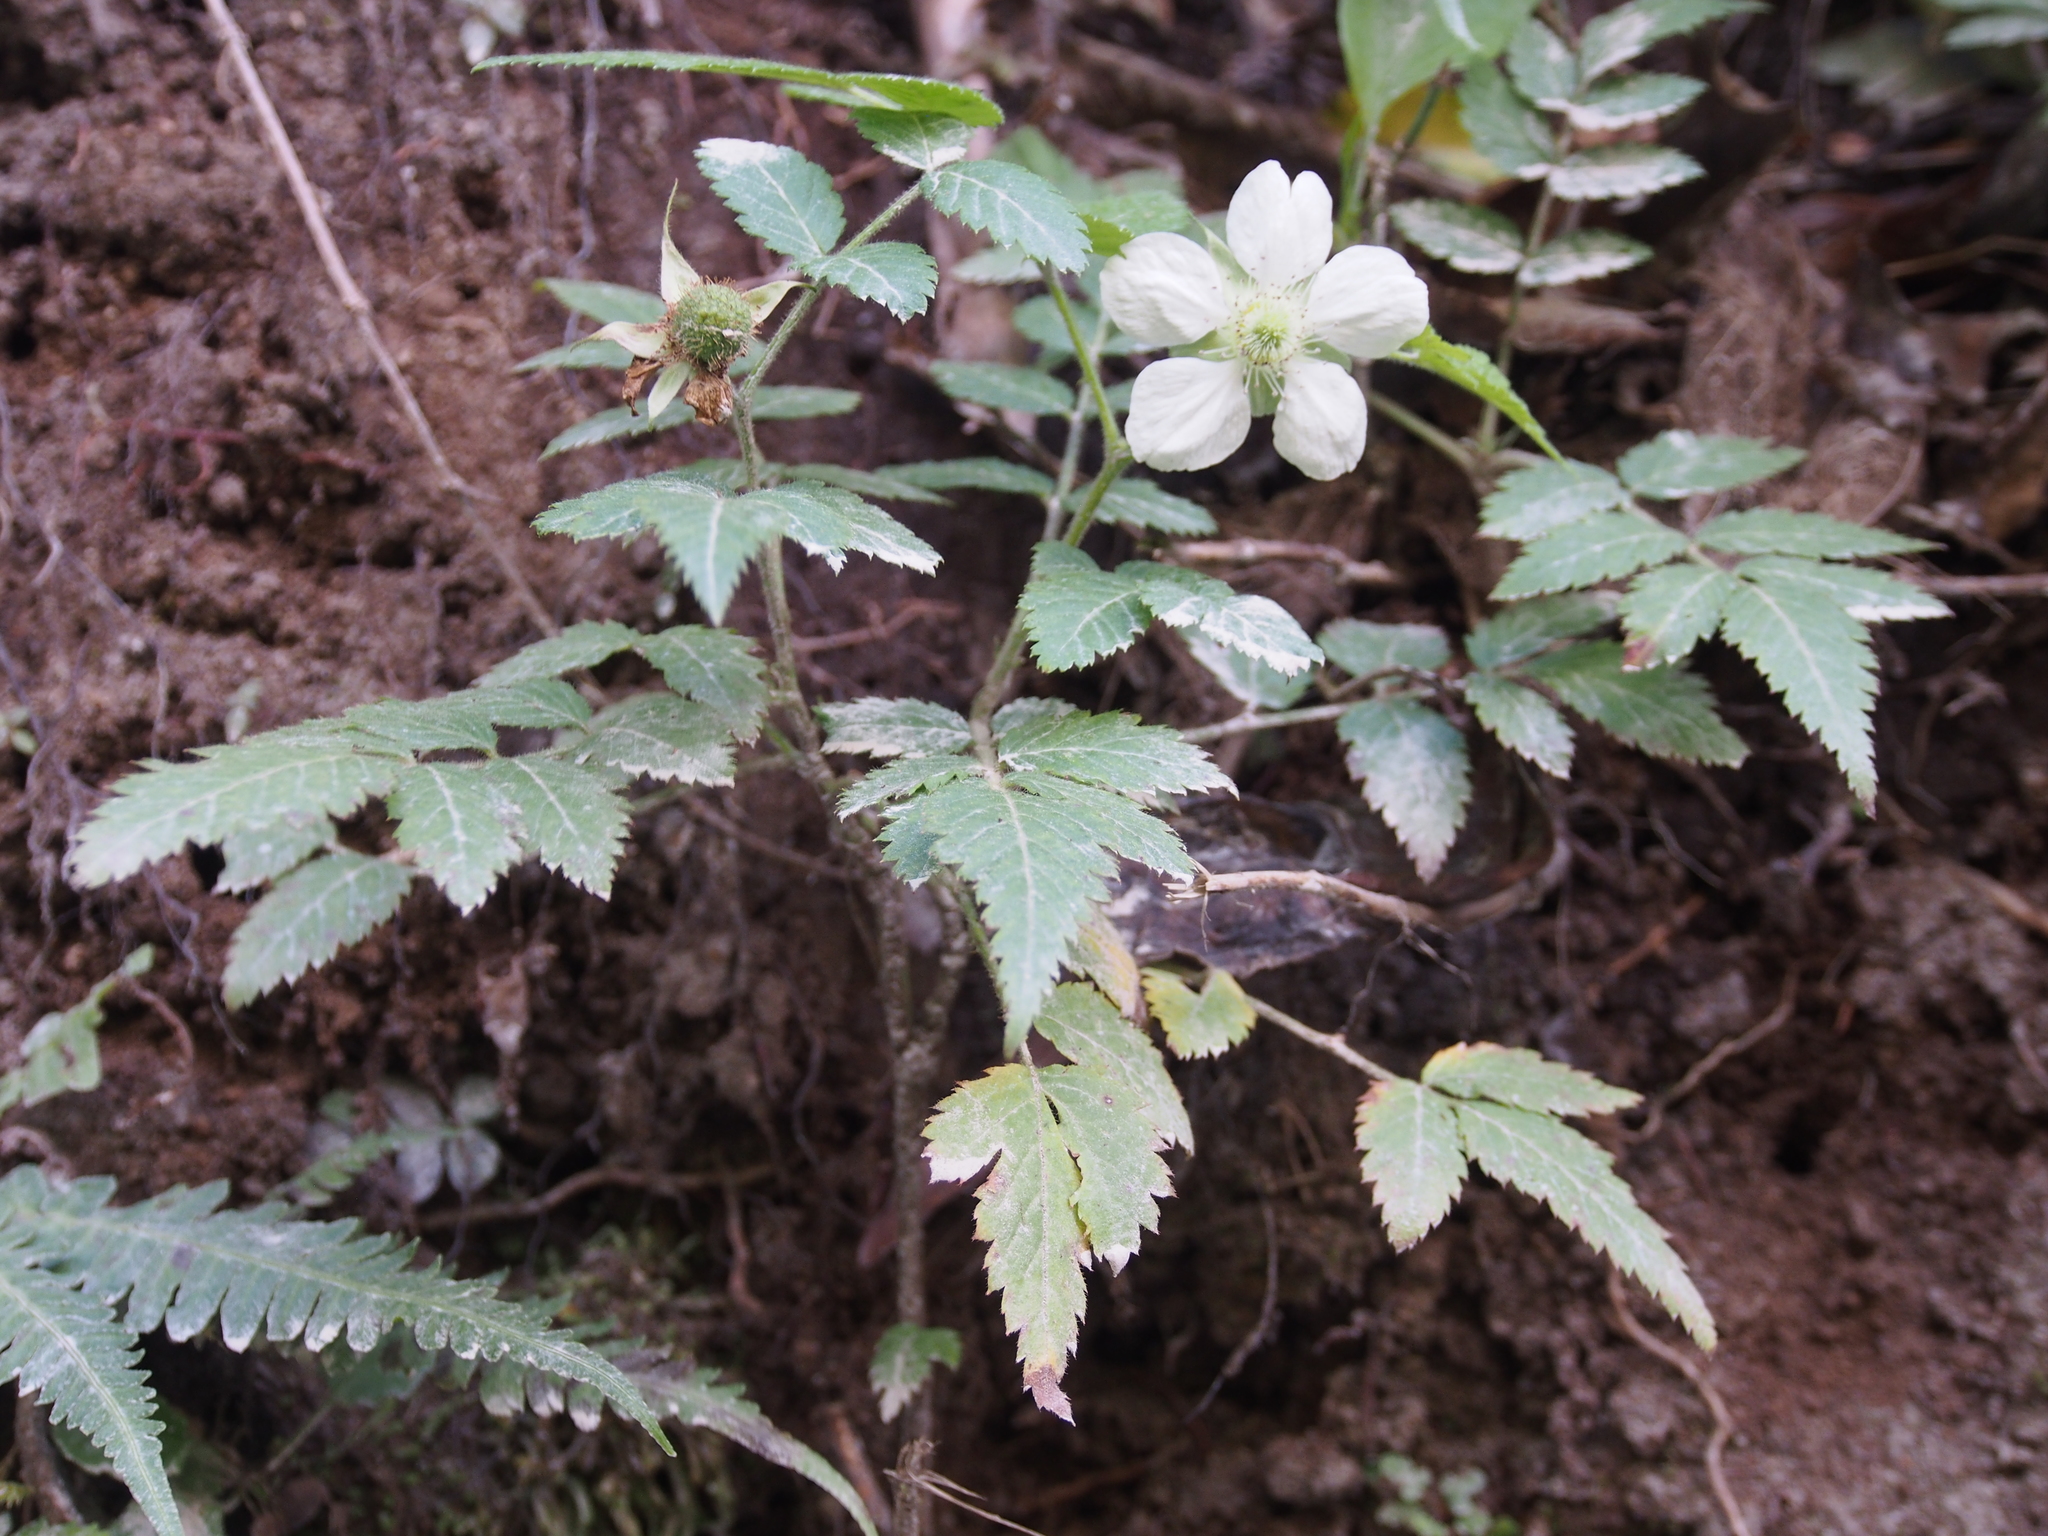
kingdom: Plantae
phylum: Tracheophyta
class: Magnoliopsida
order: Rosales
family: Rosaceae
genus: Rubus
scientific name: Rubus rosifolius
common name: Roseleaf raspberry
